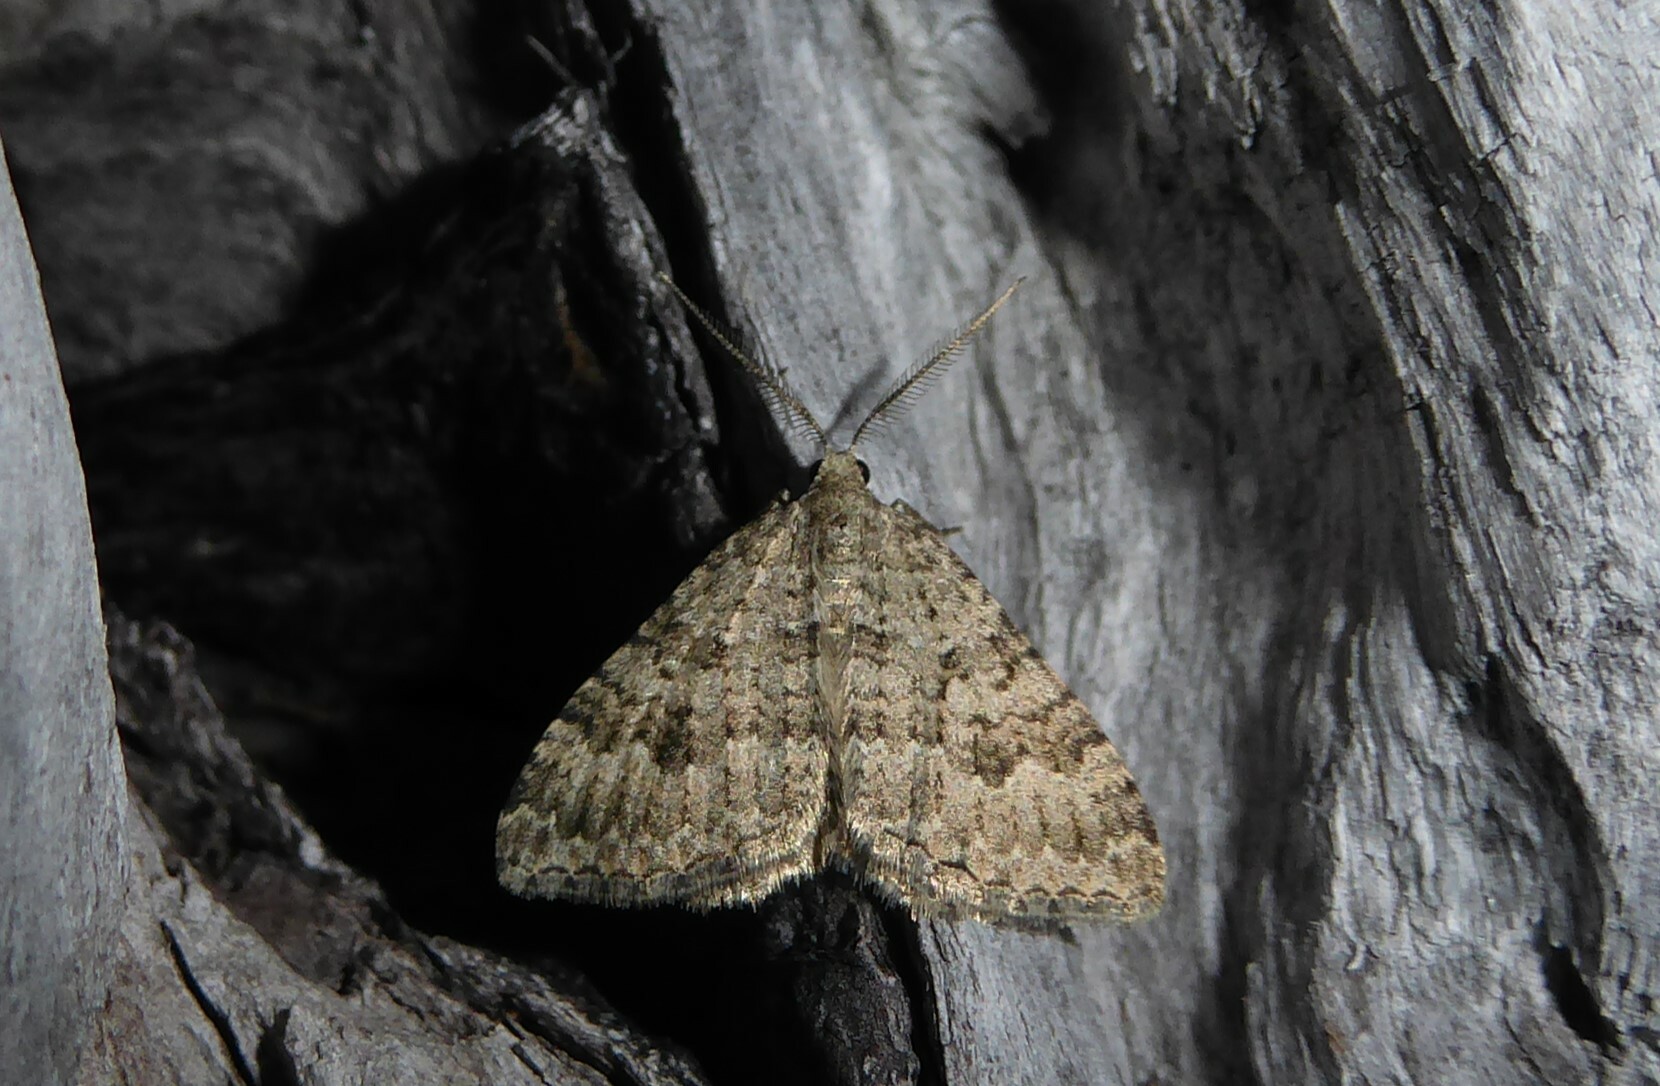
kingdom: Animalia
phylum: Arthropoda
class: Insecta
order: Lepidoptera
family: Geometridae
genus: Helastia
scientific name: Helastia corcularia
